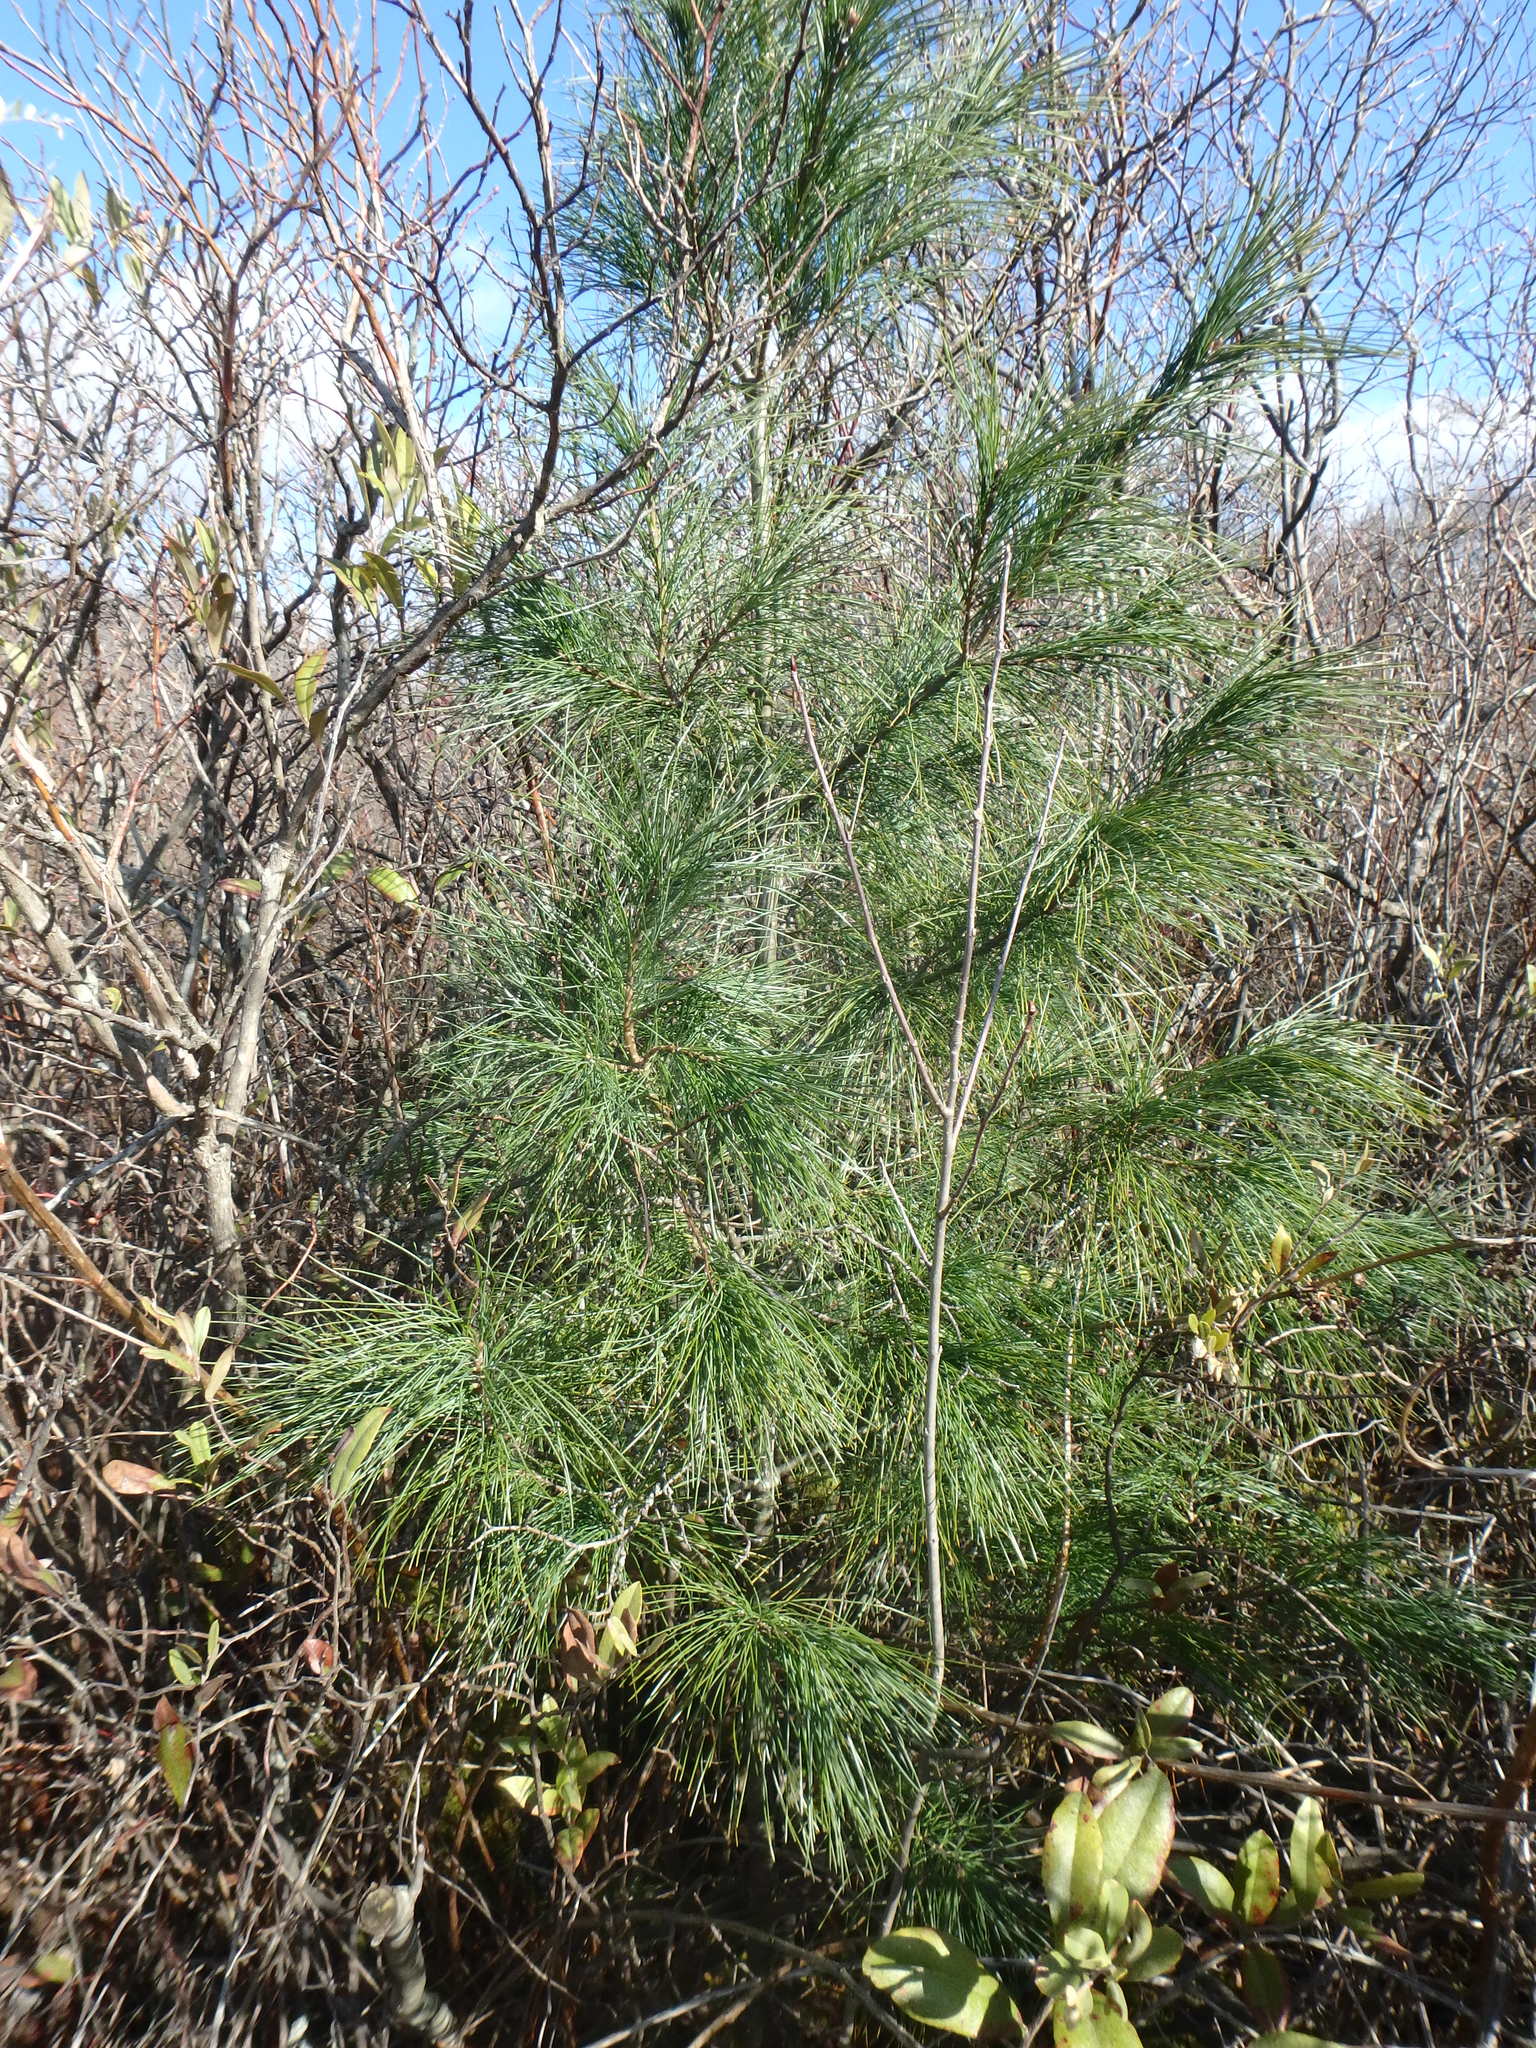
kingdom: Plantae
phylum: Tracheophyta
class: Pinopsida
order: Pinales
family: Pinaceae
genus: Pinus
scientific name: Pinus strobus
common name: Weymouth pine
